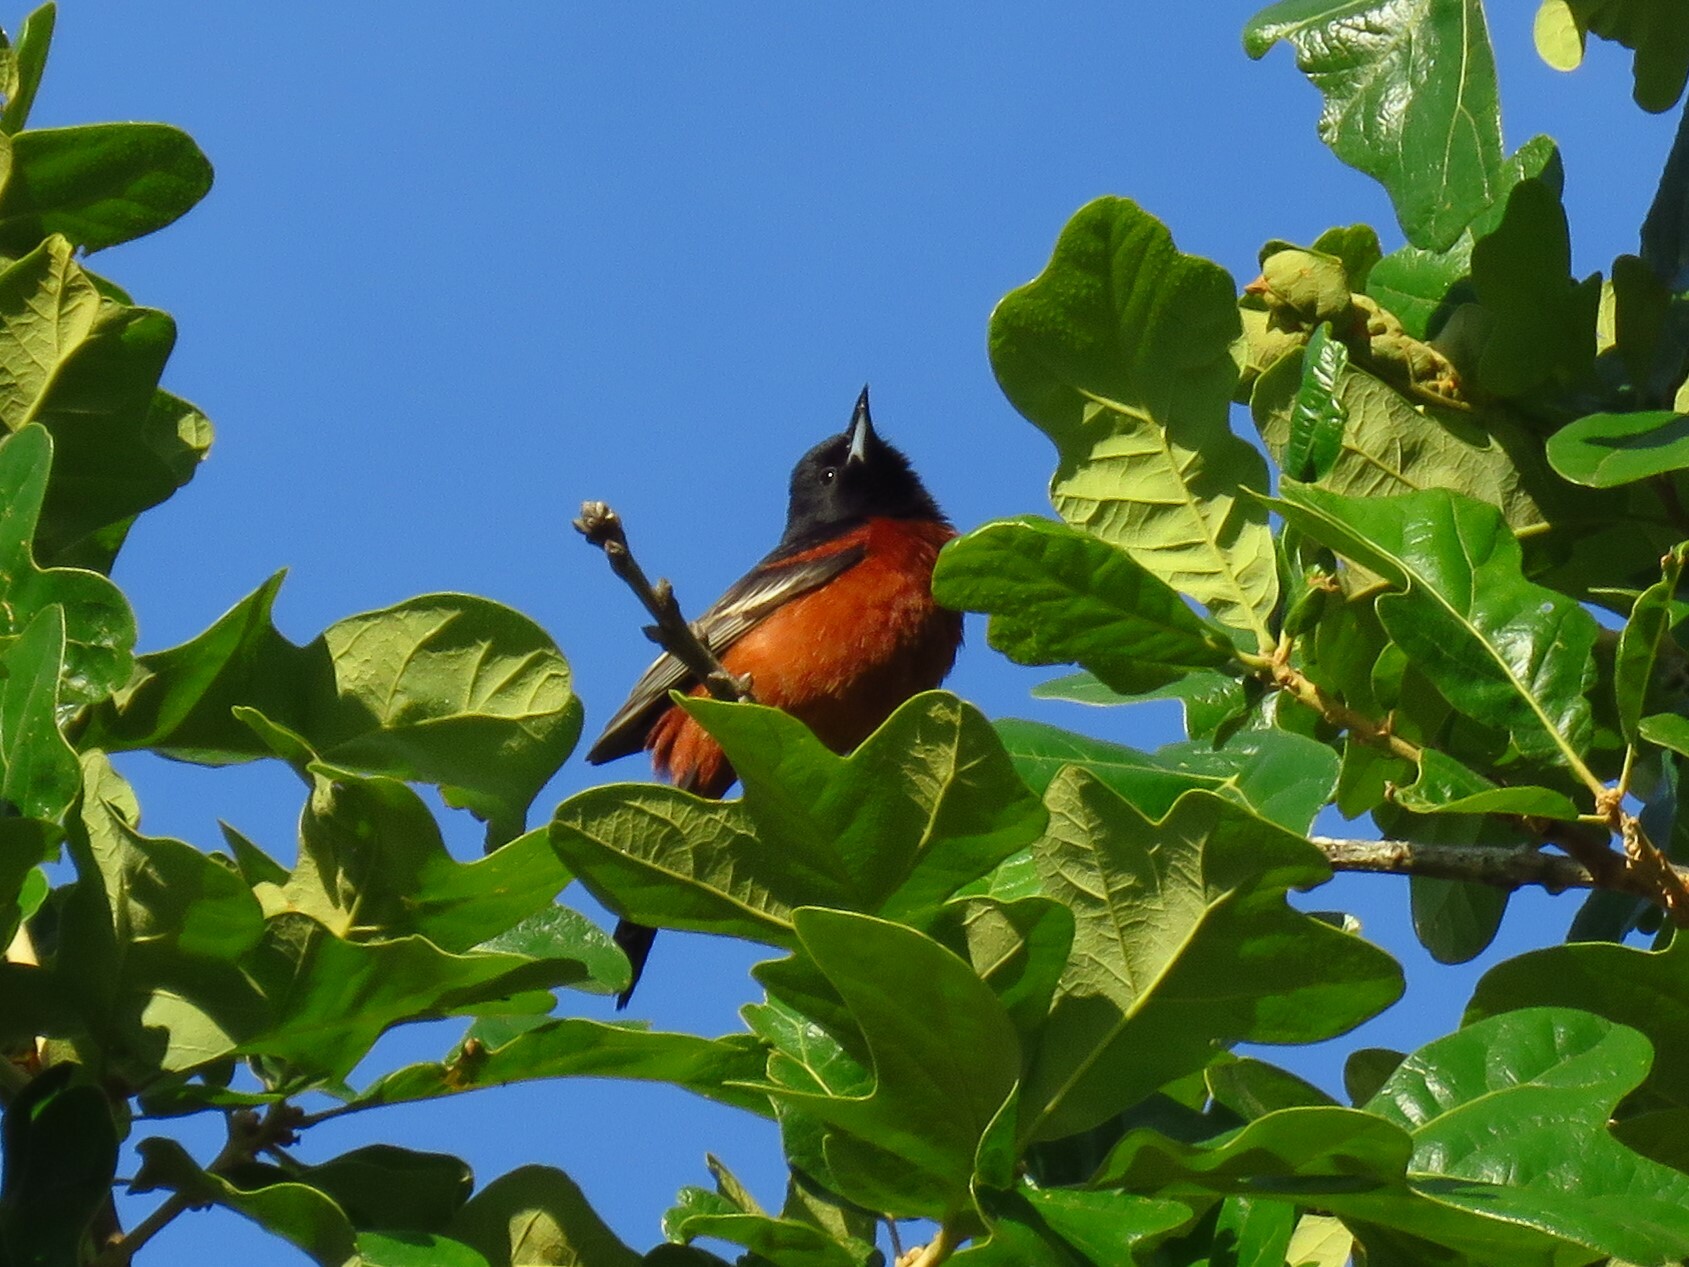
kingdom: Animalia
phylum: Chordata
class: Aves
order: Passeriformes
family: Icteridae
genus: Icterus
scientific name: Icterus spurius
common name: Orchard oriole
